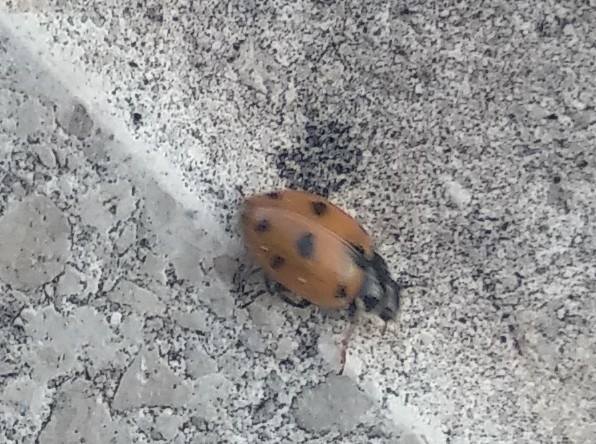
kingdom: Animalia
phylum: Arthropoda
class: Insecta
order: Coleoptera
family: Coccinellidae
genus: Hippodamia
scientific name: Hippodamia variegata
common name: Ladybird beetle
